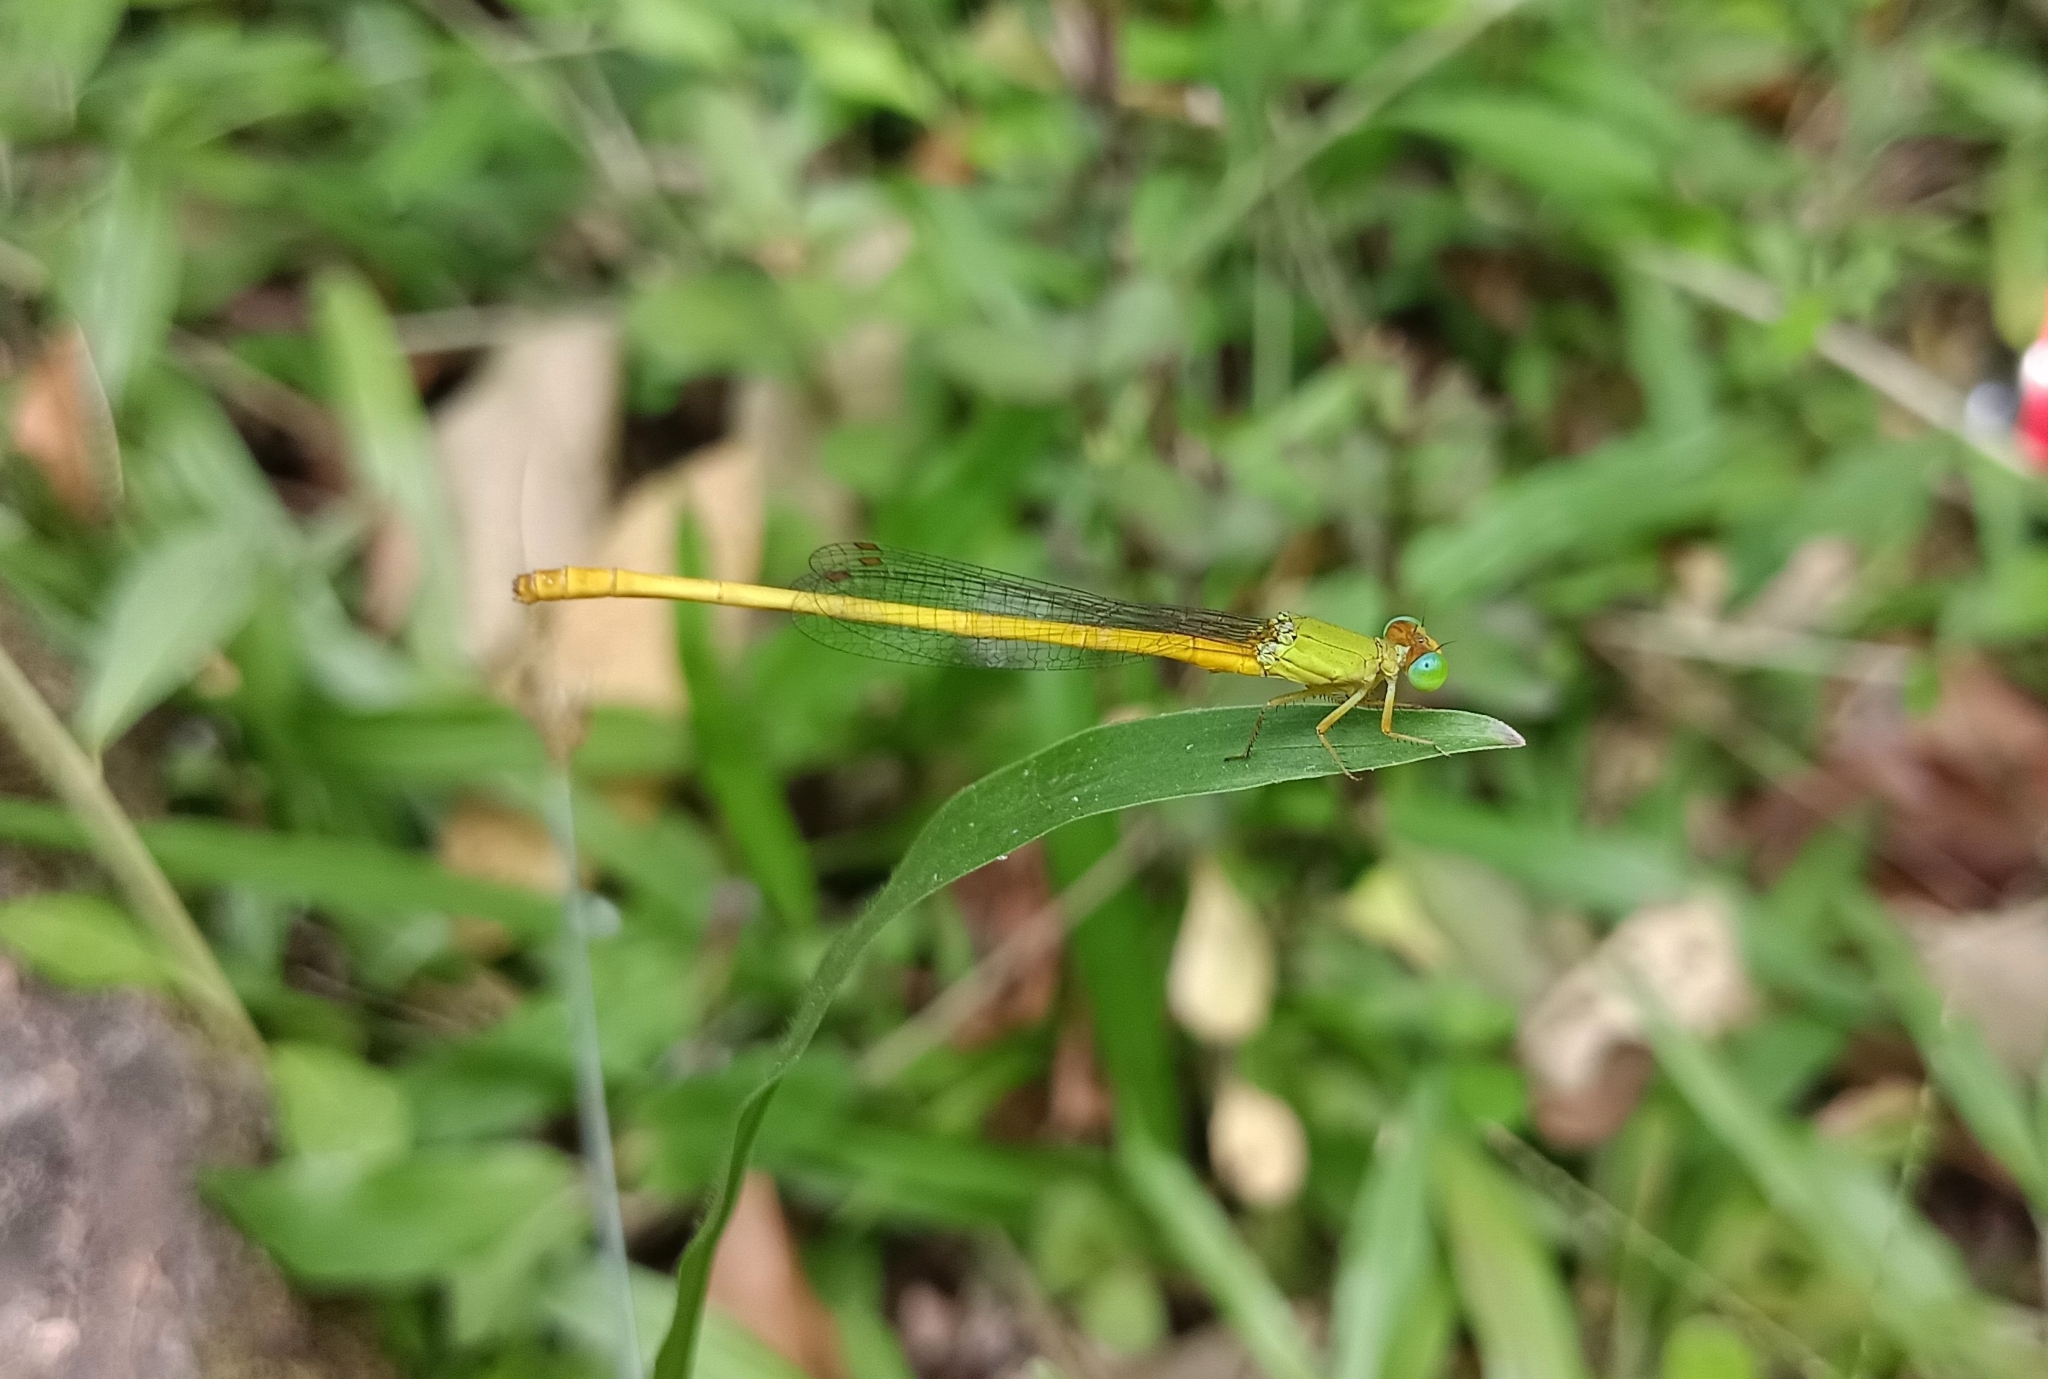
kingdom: Animalia
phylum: Arthropoda
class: Insecta
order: Odonata
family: Coenagrionidae
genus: Ceriagrion
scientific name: Ceriagrion coromandelianum
